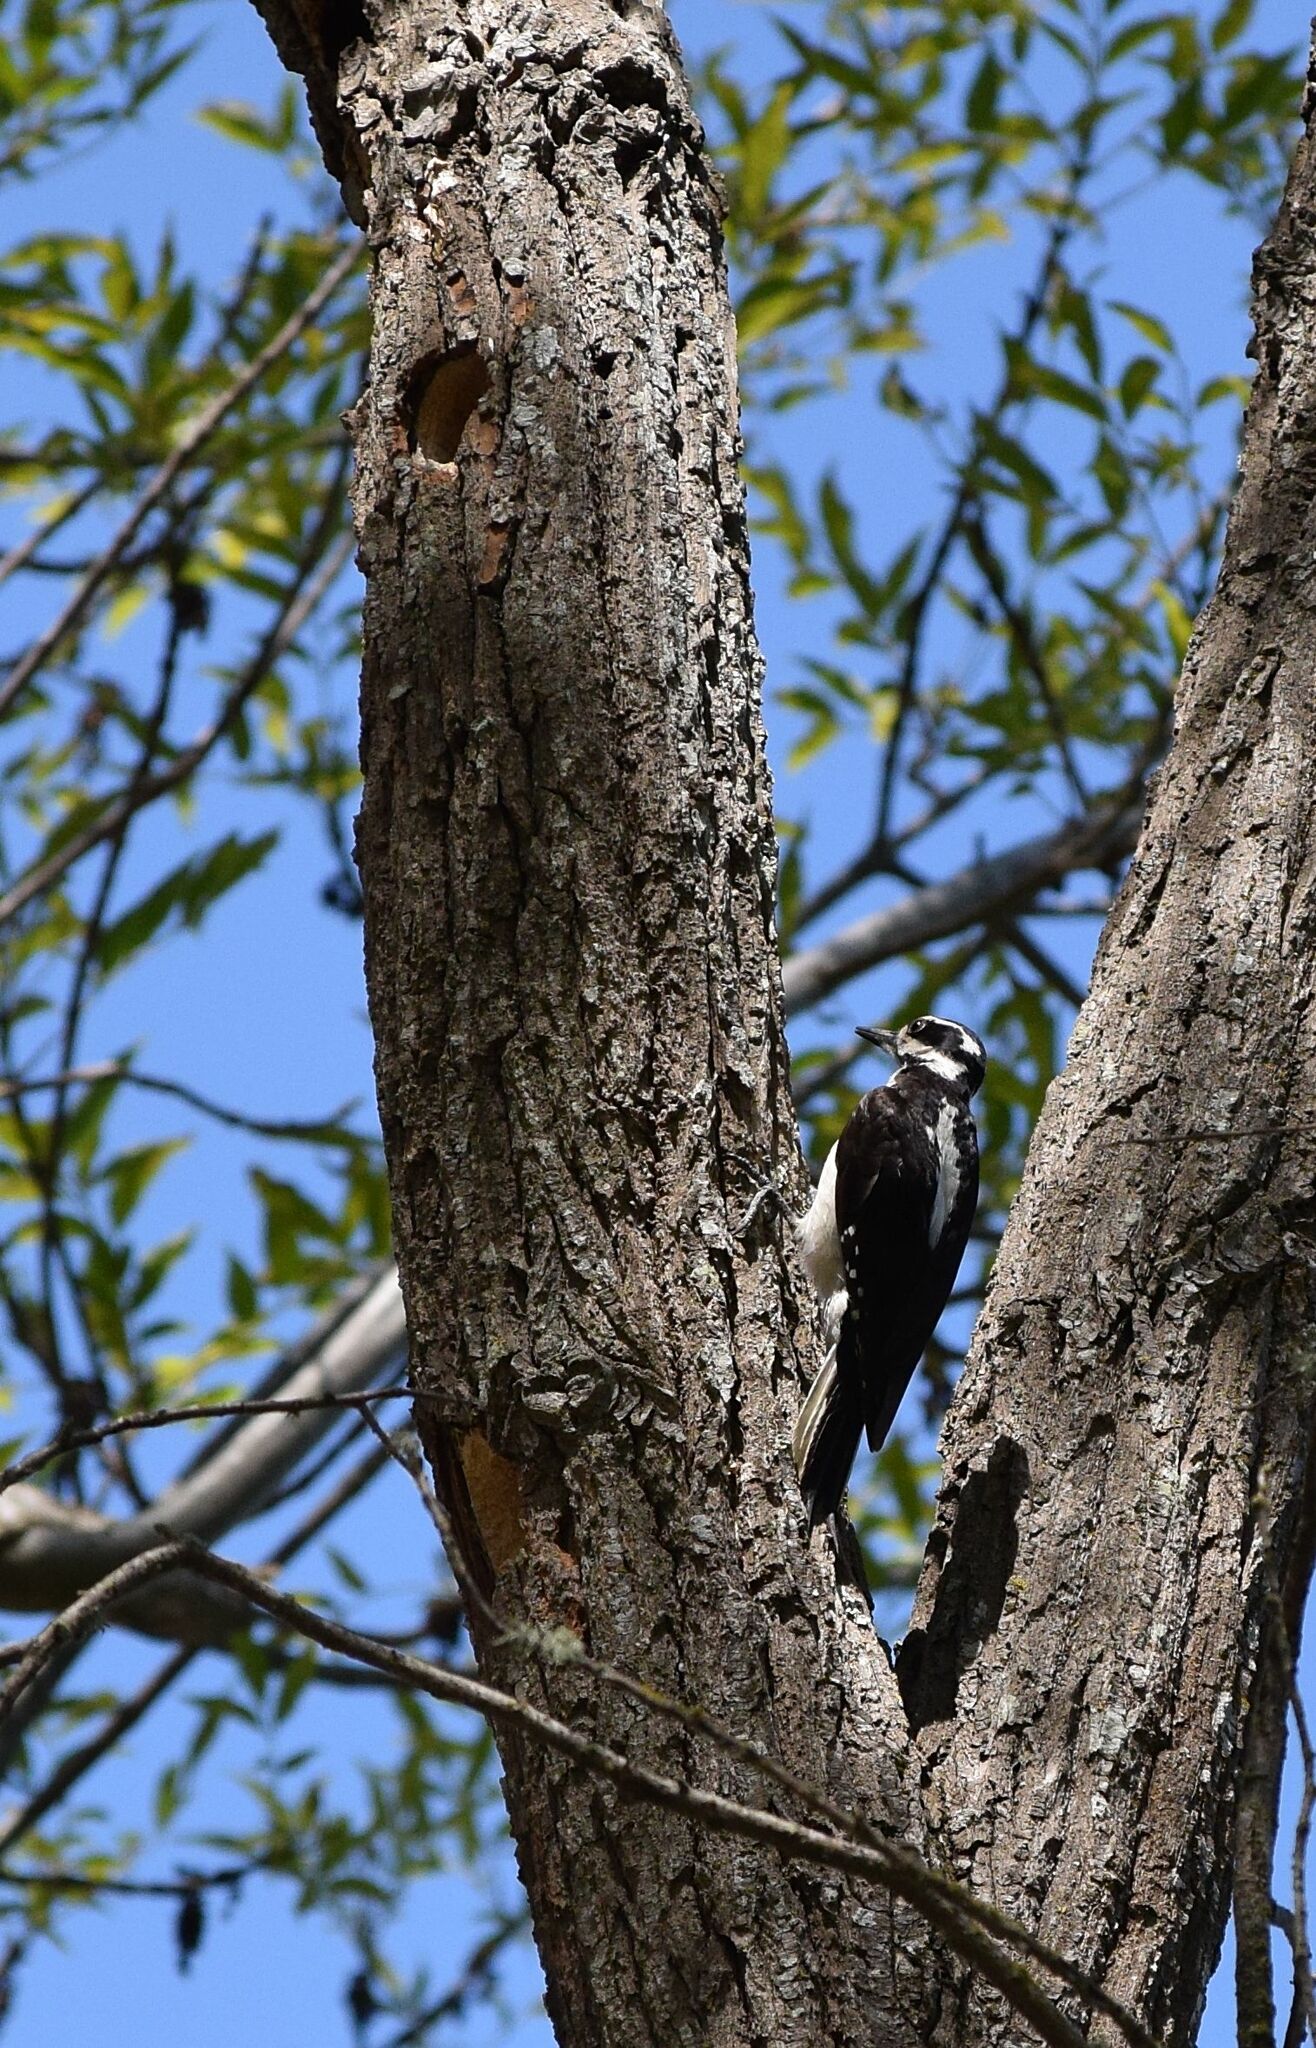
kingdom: Animalia
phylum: Chordata
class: Aves
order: Piciformes
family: Picidae
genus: Leuconotopicus
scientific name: Leuconotopicus villosus
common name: Hairy woodpecker
